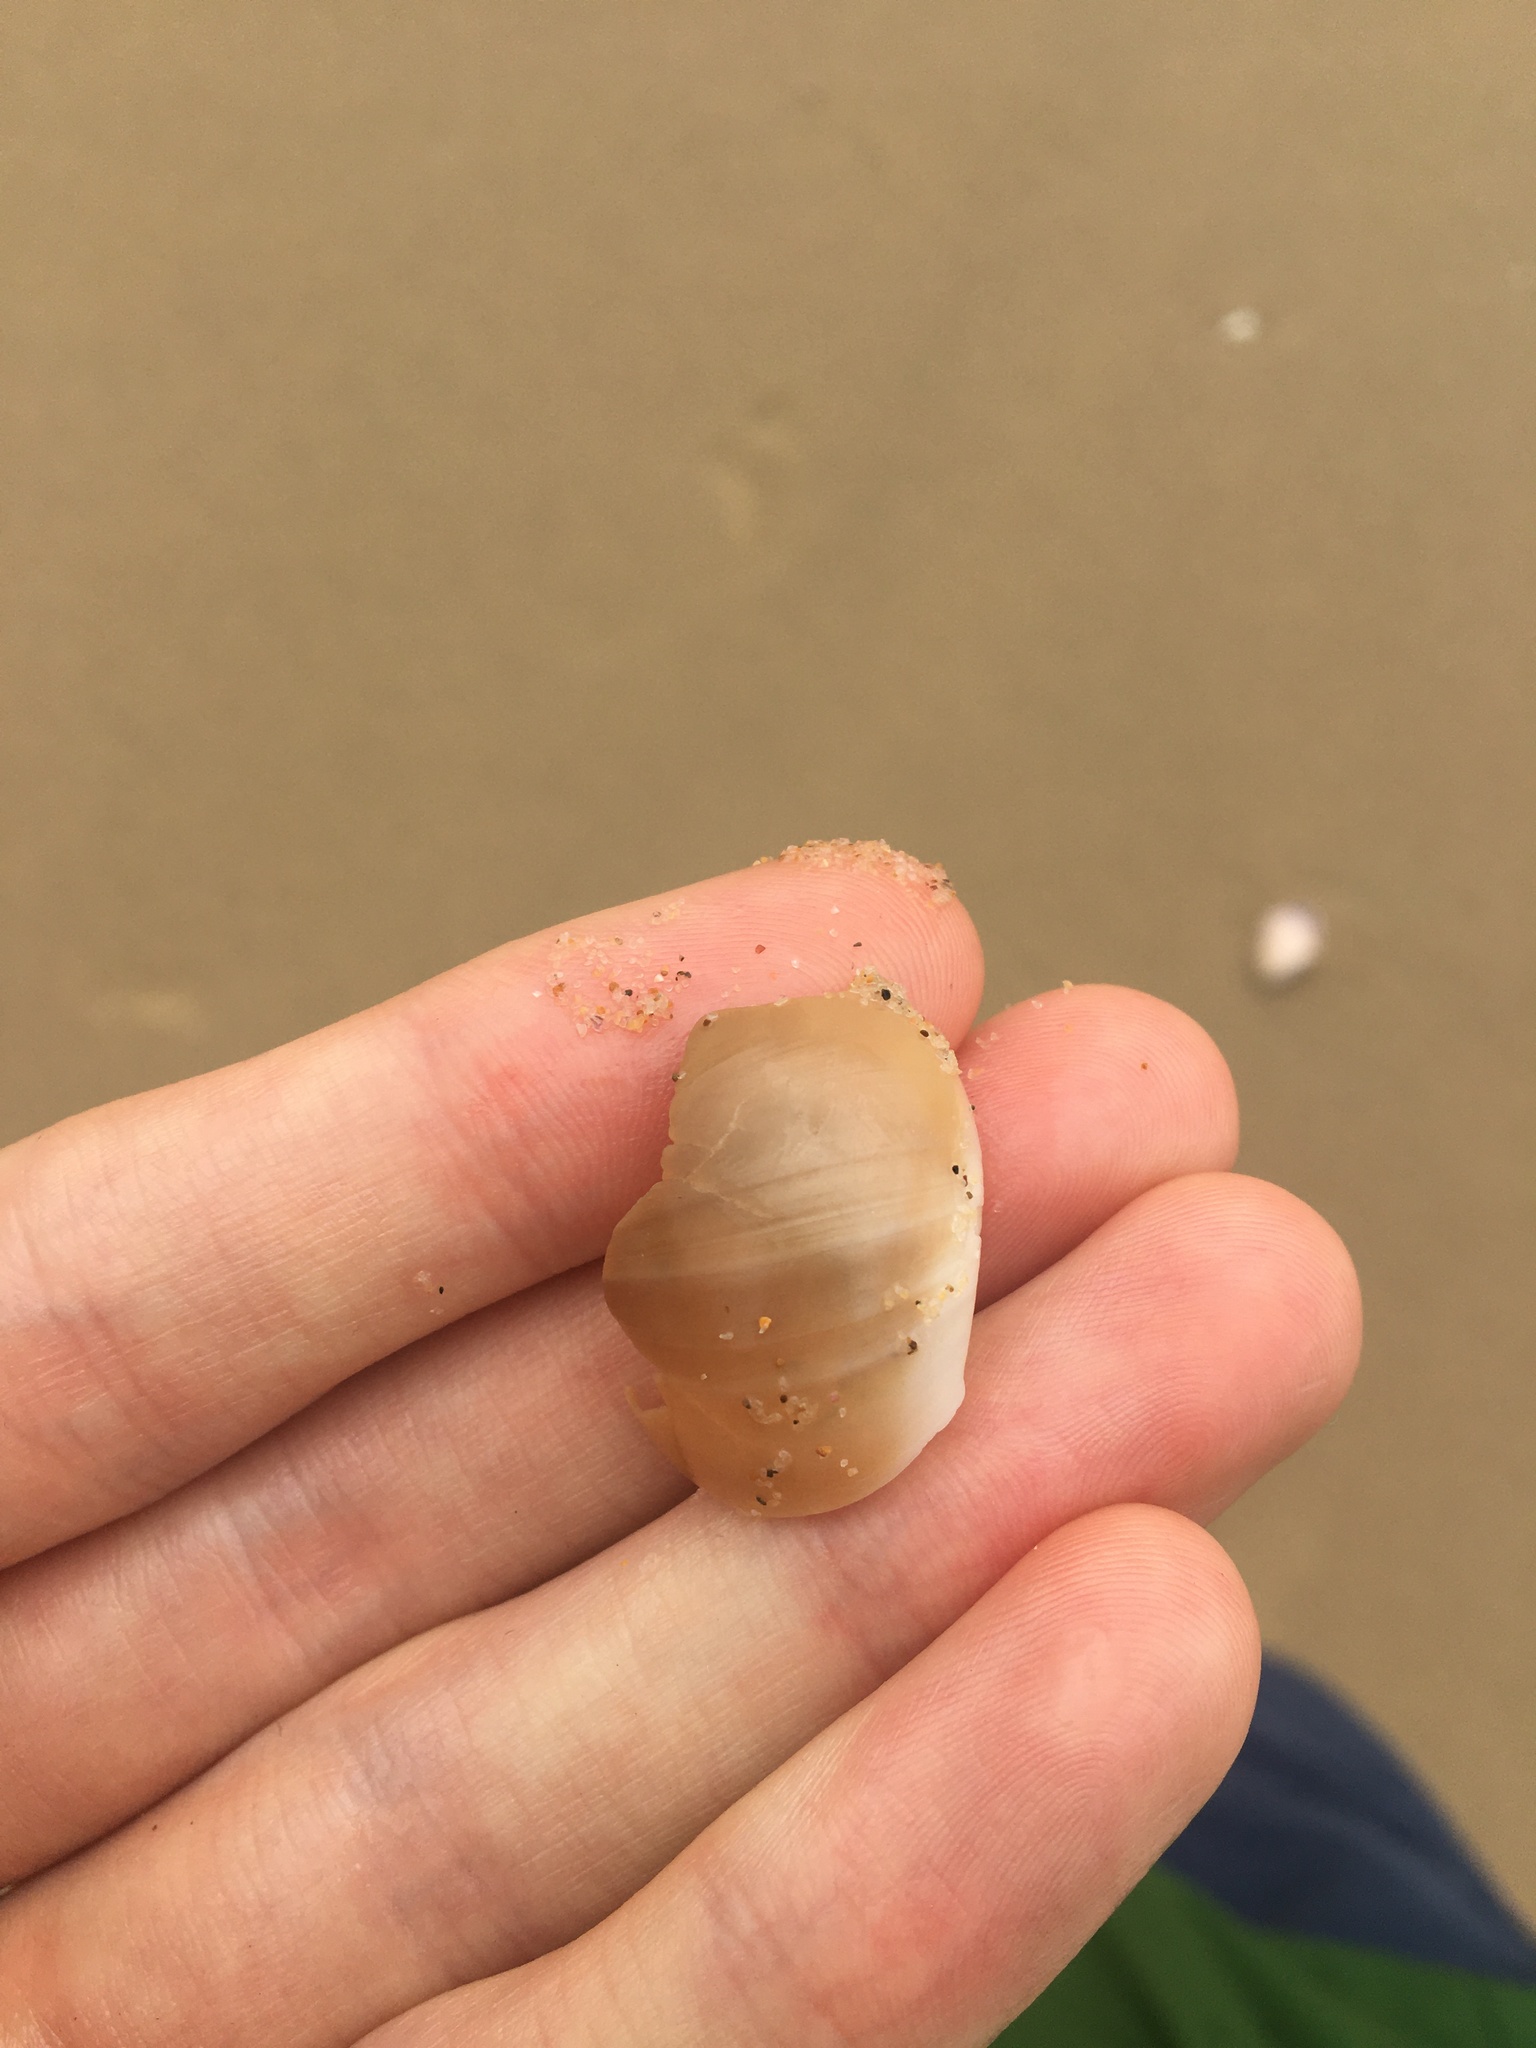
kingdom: Animalia
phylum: Mollusca
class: Gastropoda
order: Littorinimorpha
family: Naticidae
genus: Neverita
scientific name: Neverita didyma
